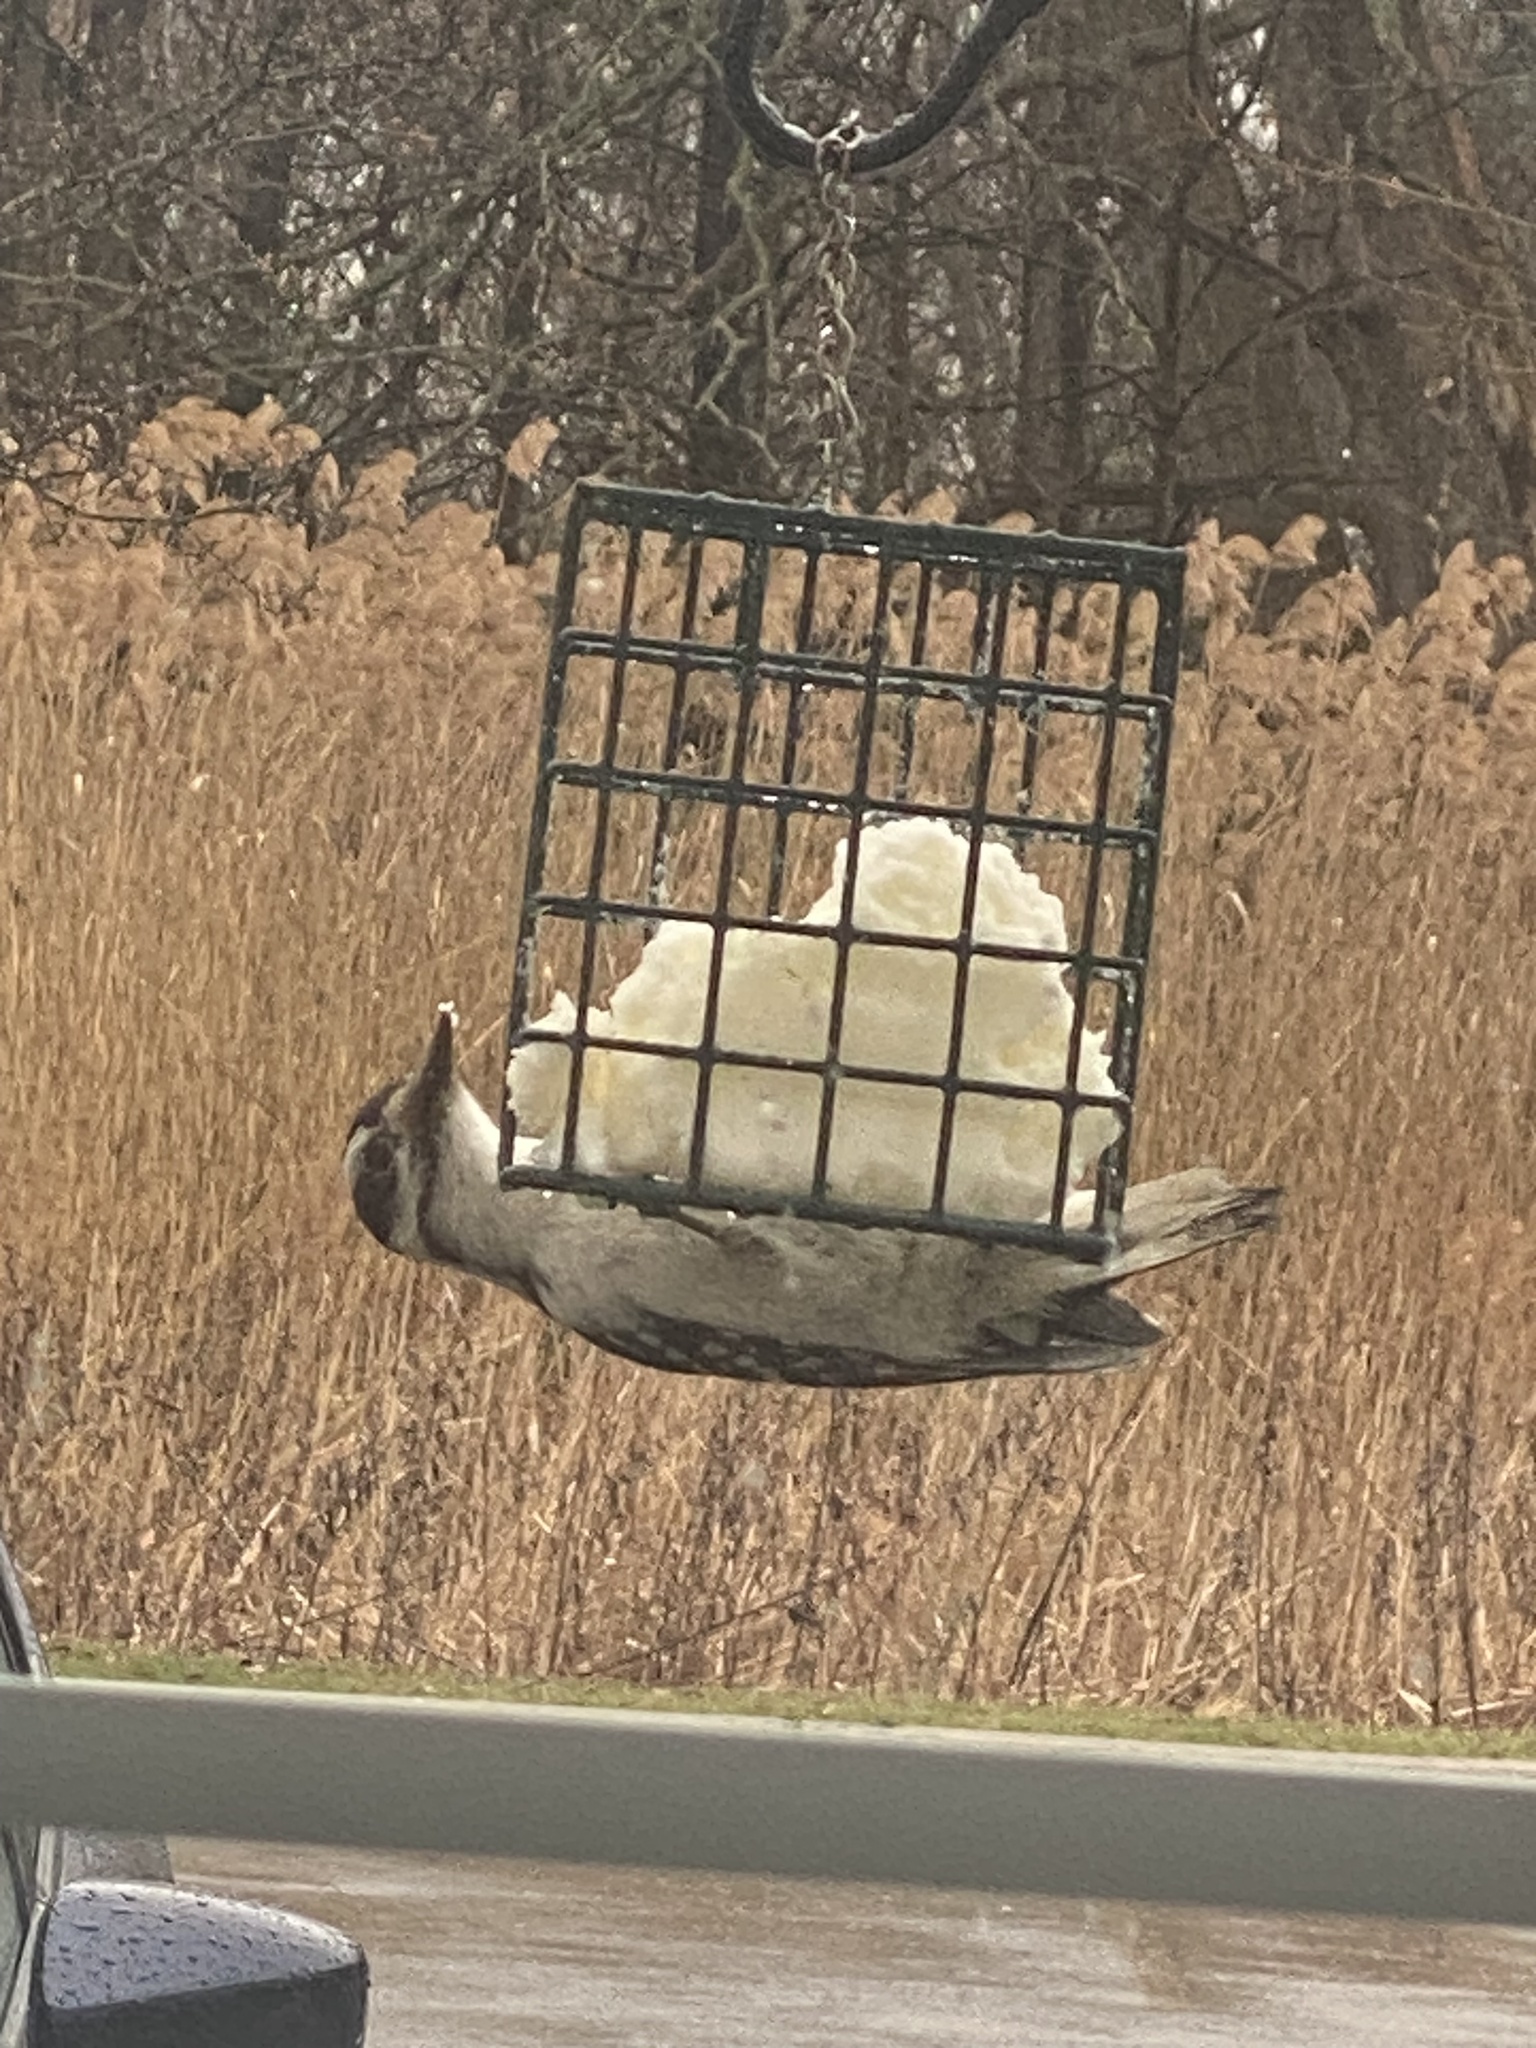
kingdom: Animalia
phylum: Chordata
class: Aves
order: Piciformes
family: Picidae
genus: Leuconotopicus
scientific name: Leuconotopicus villosus
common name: Hairy woodpecker
